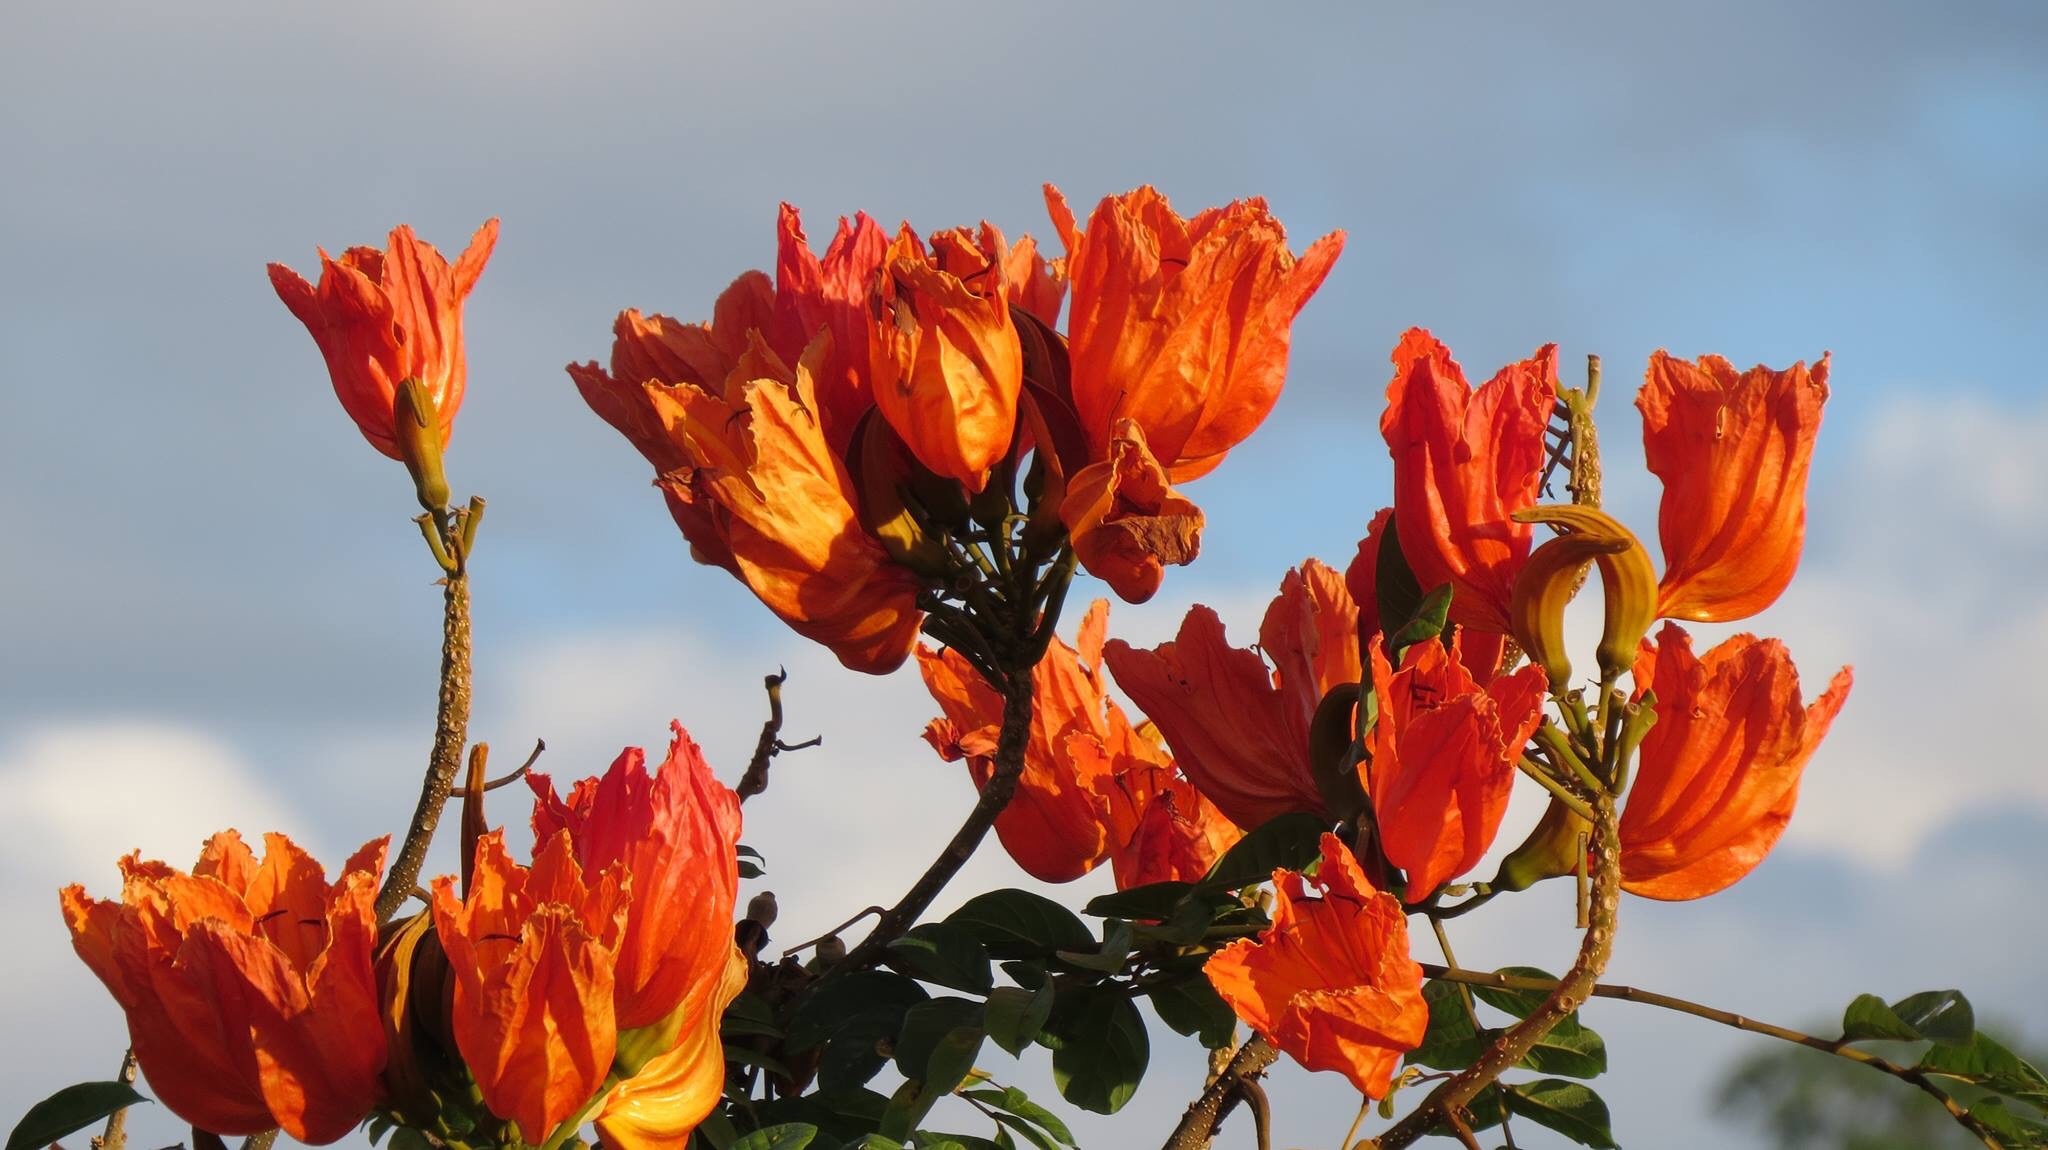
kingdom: Plantae
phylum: Tracheophyta
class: Magnoliopsida
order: Lamiales
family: Bignoniaceae
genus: Spathodea
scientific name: Spathodea campanulata
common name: African tuliptree
